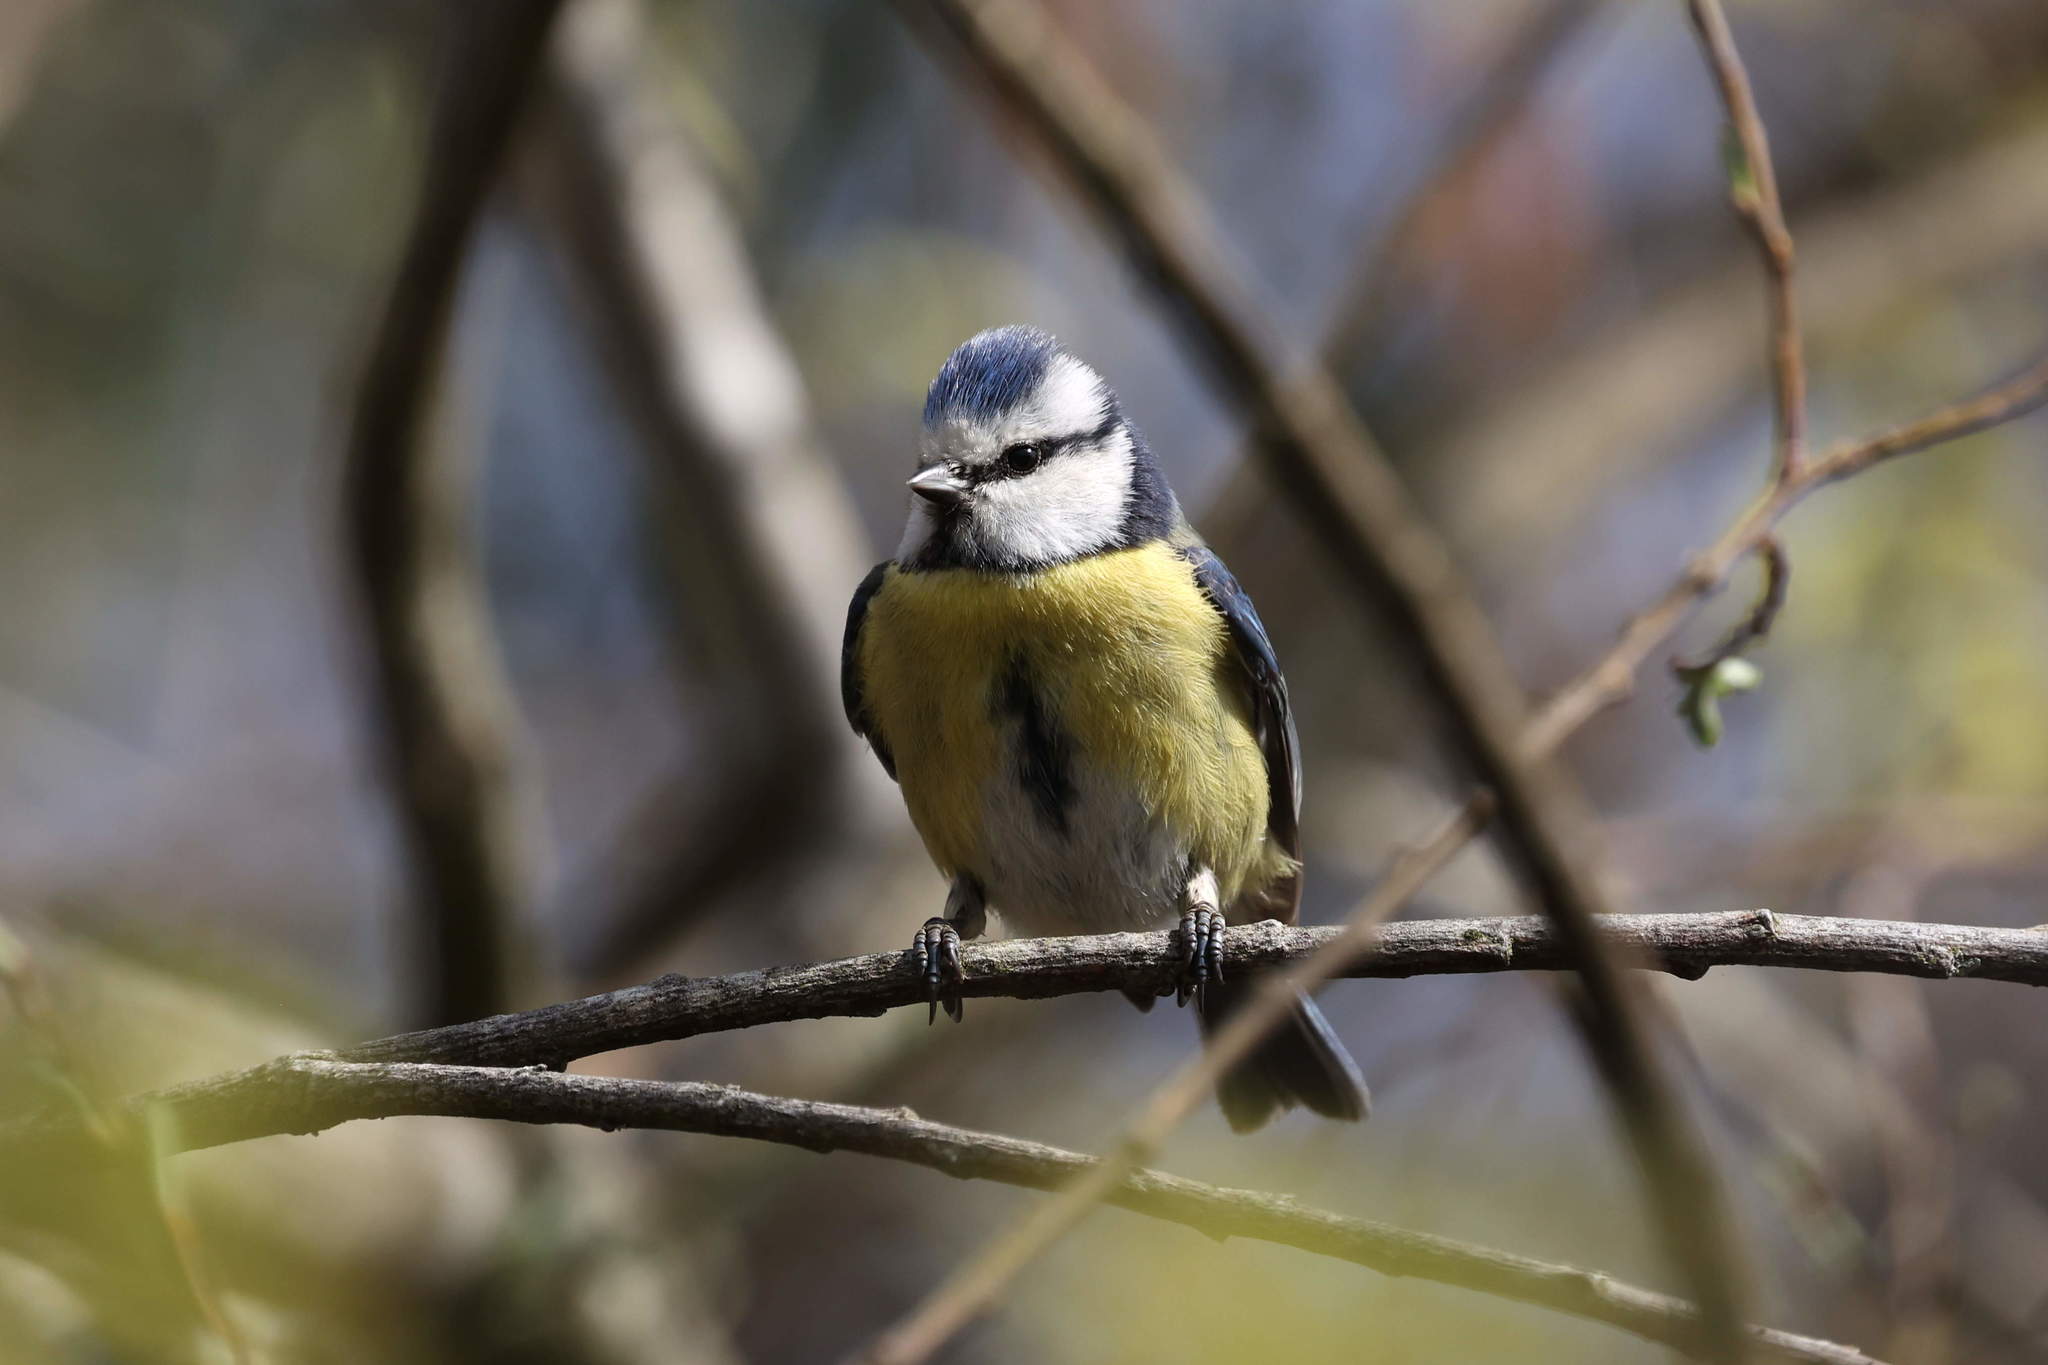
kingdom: Animalia
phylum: Chordata
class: Aves
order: Passeriformes
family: Paridae
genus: Cyanistes
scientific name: Cyanistes caeruleus
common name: Eurasian blue tit
